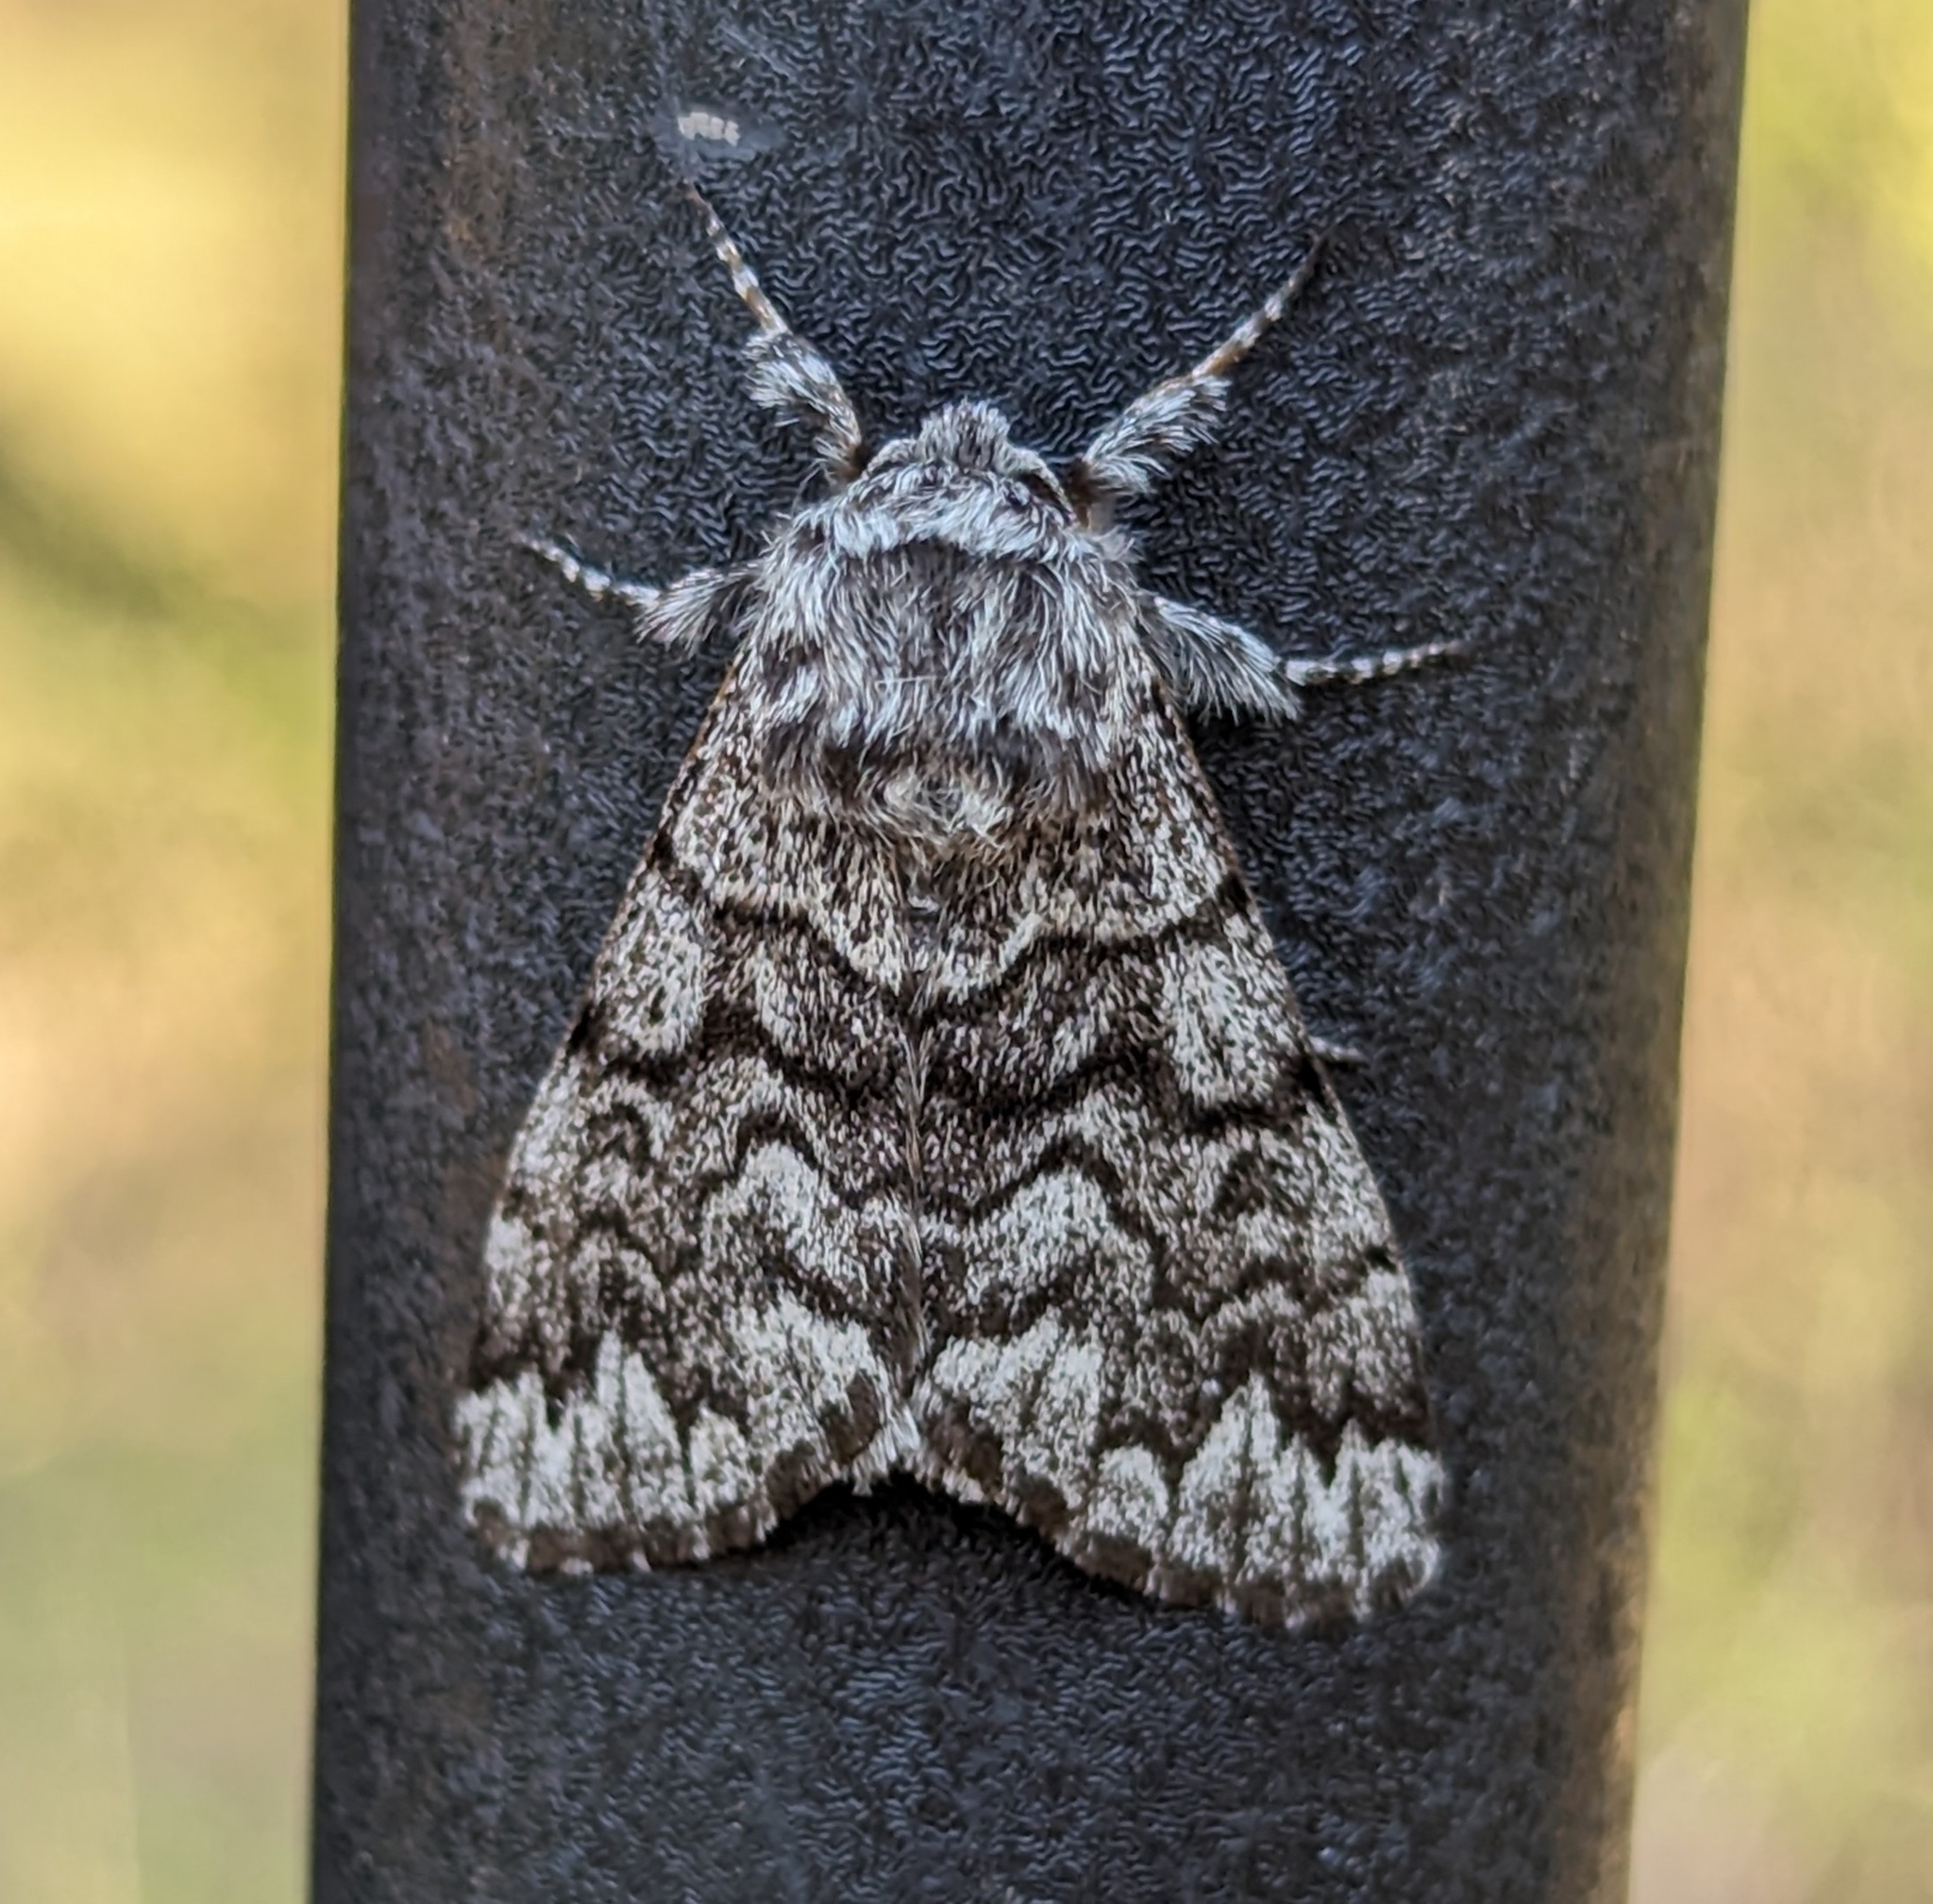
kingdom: Animalia
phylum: Arthropoda
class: Insecta
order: Lepidoptera
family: Noctuidae
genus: Panthea
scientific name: Panthea virginarius
